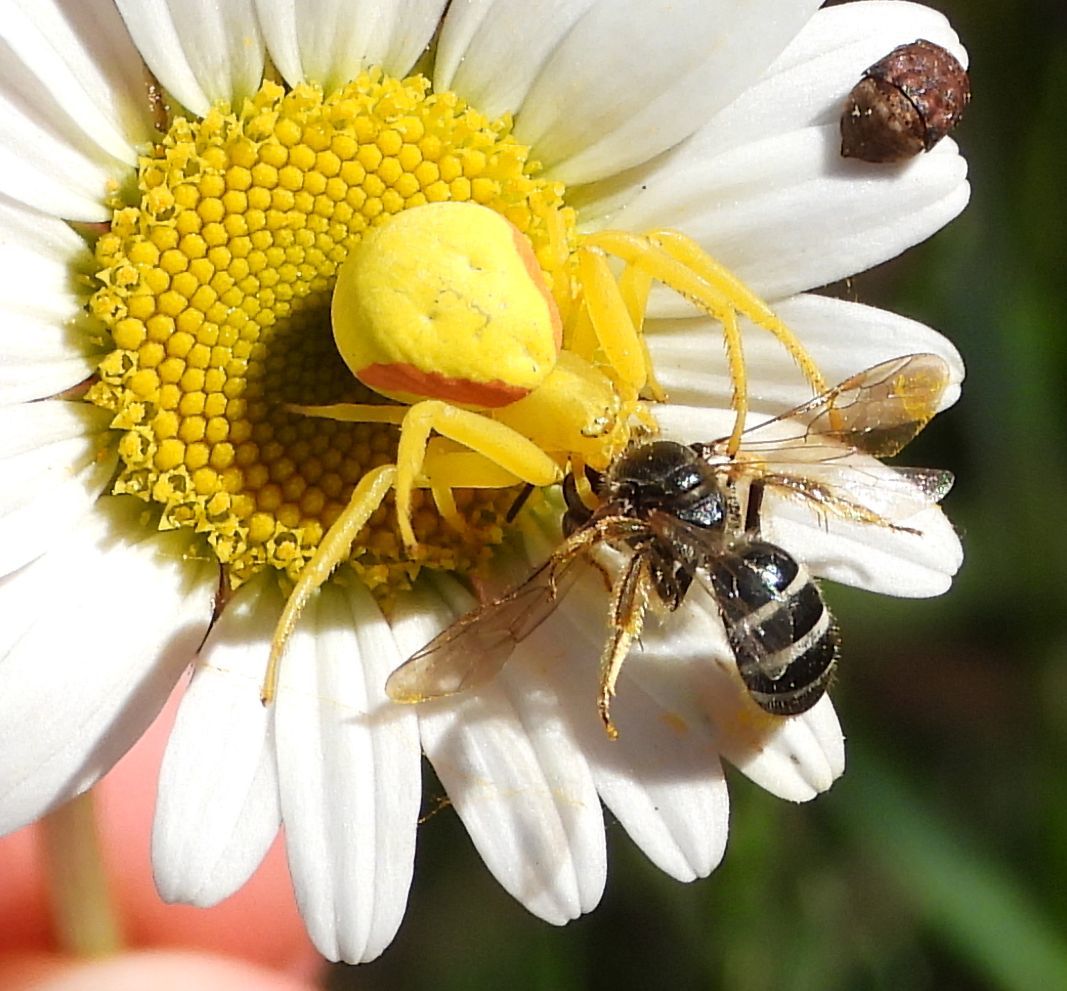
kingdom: Animalia
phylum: Arthropoda
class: Arachnida
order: Araneae
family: Thomisidae
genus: Misumena
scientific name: Misumena vatia
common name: Goldenrod crab spider
